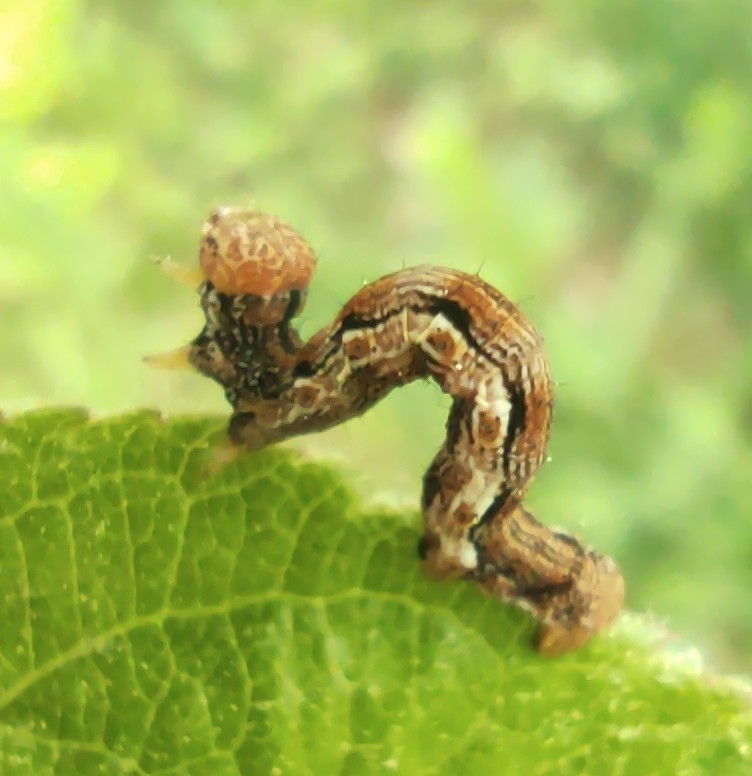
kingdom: Animalia
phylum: Arthropoda
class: Insecta
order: Lepidoptera
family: Geometridae
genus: Erannis
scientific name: Erannis defoliaria
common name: Mottled umber
